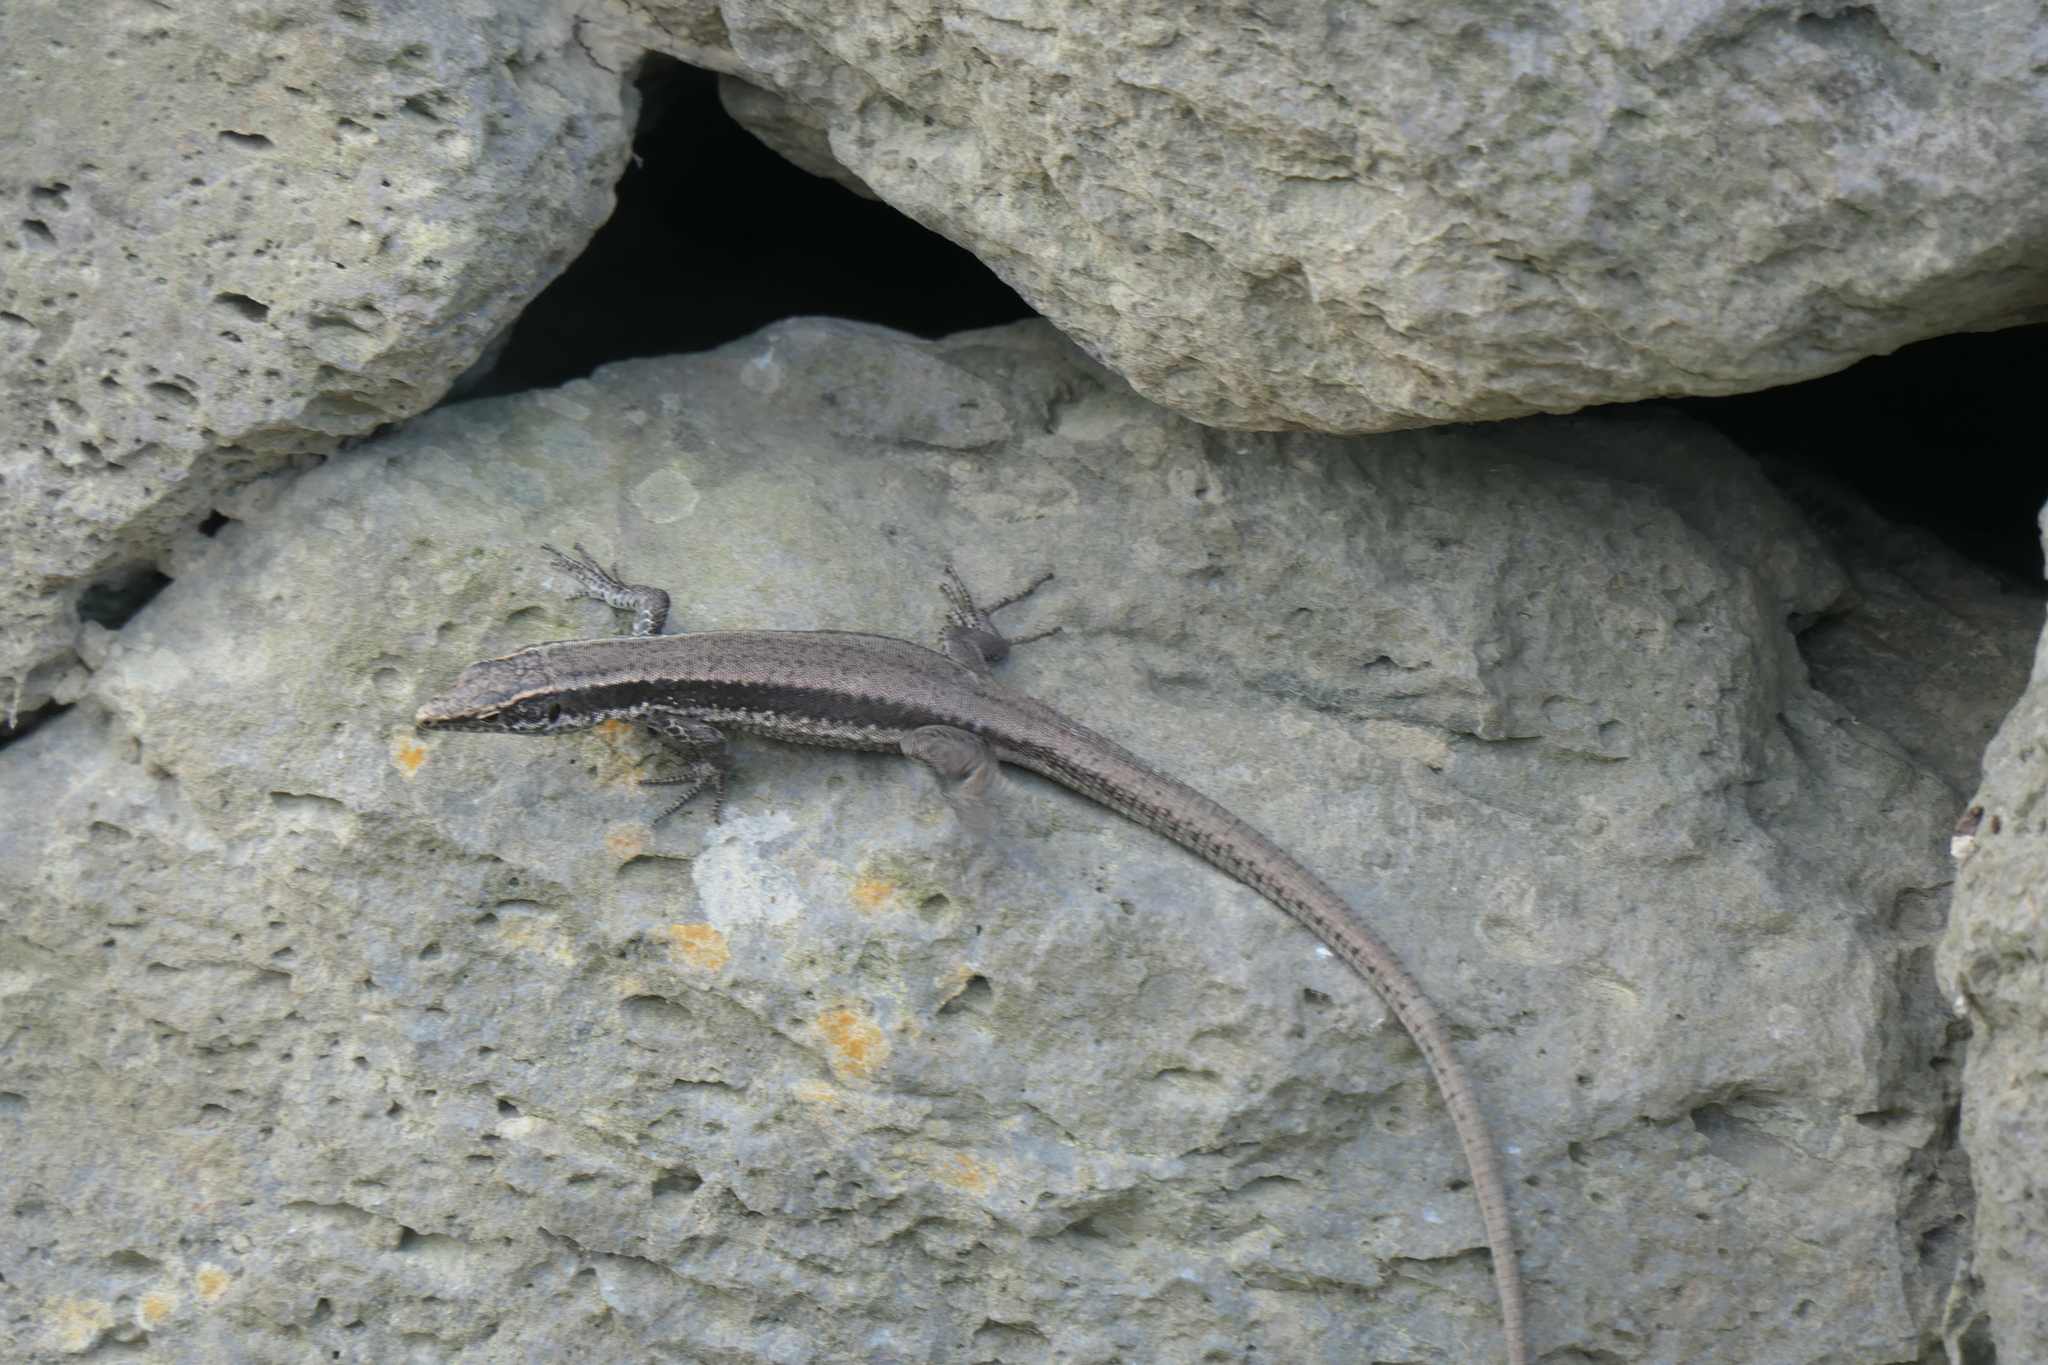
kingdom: Animalia
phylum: Chordata
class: Squamata
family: Lacertidae
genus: Teira
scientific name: Teira dugesii
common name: Madeira lizard
